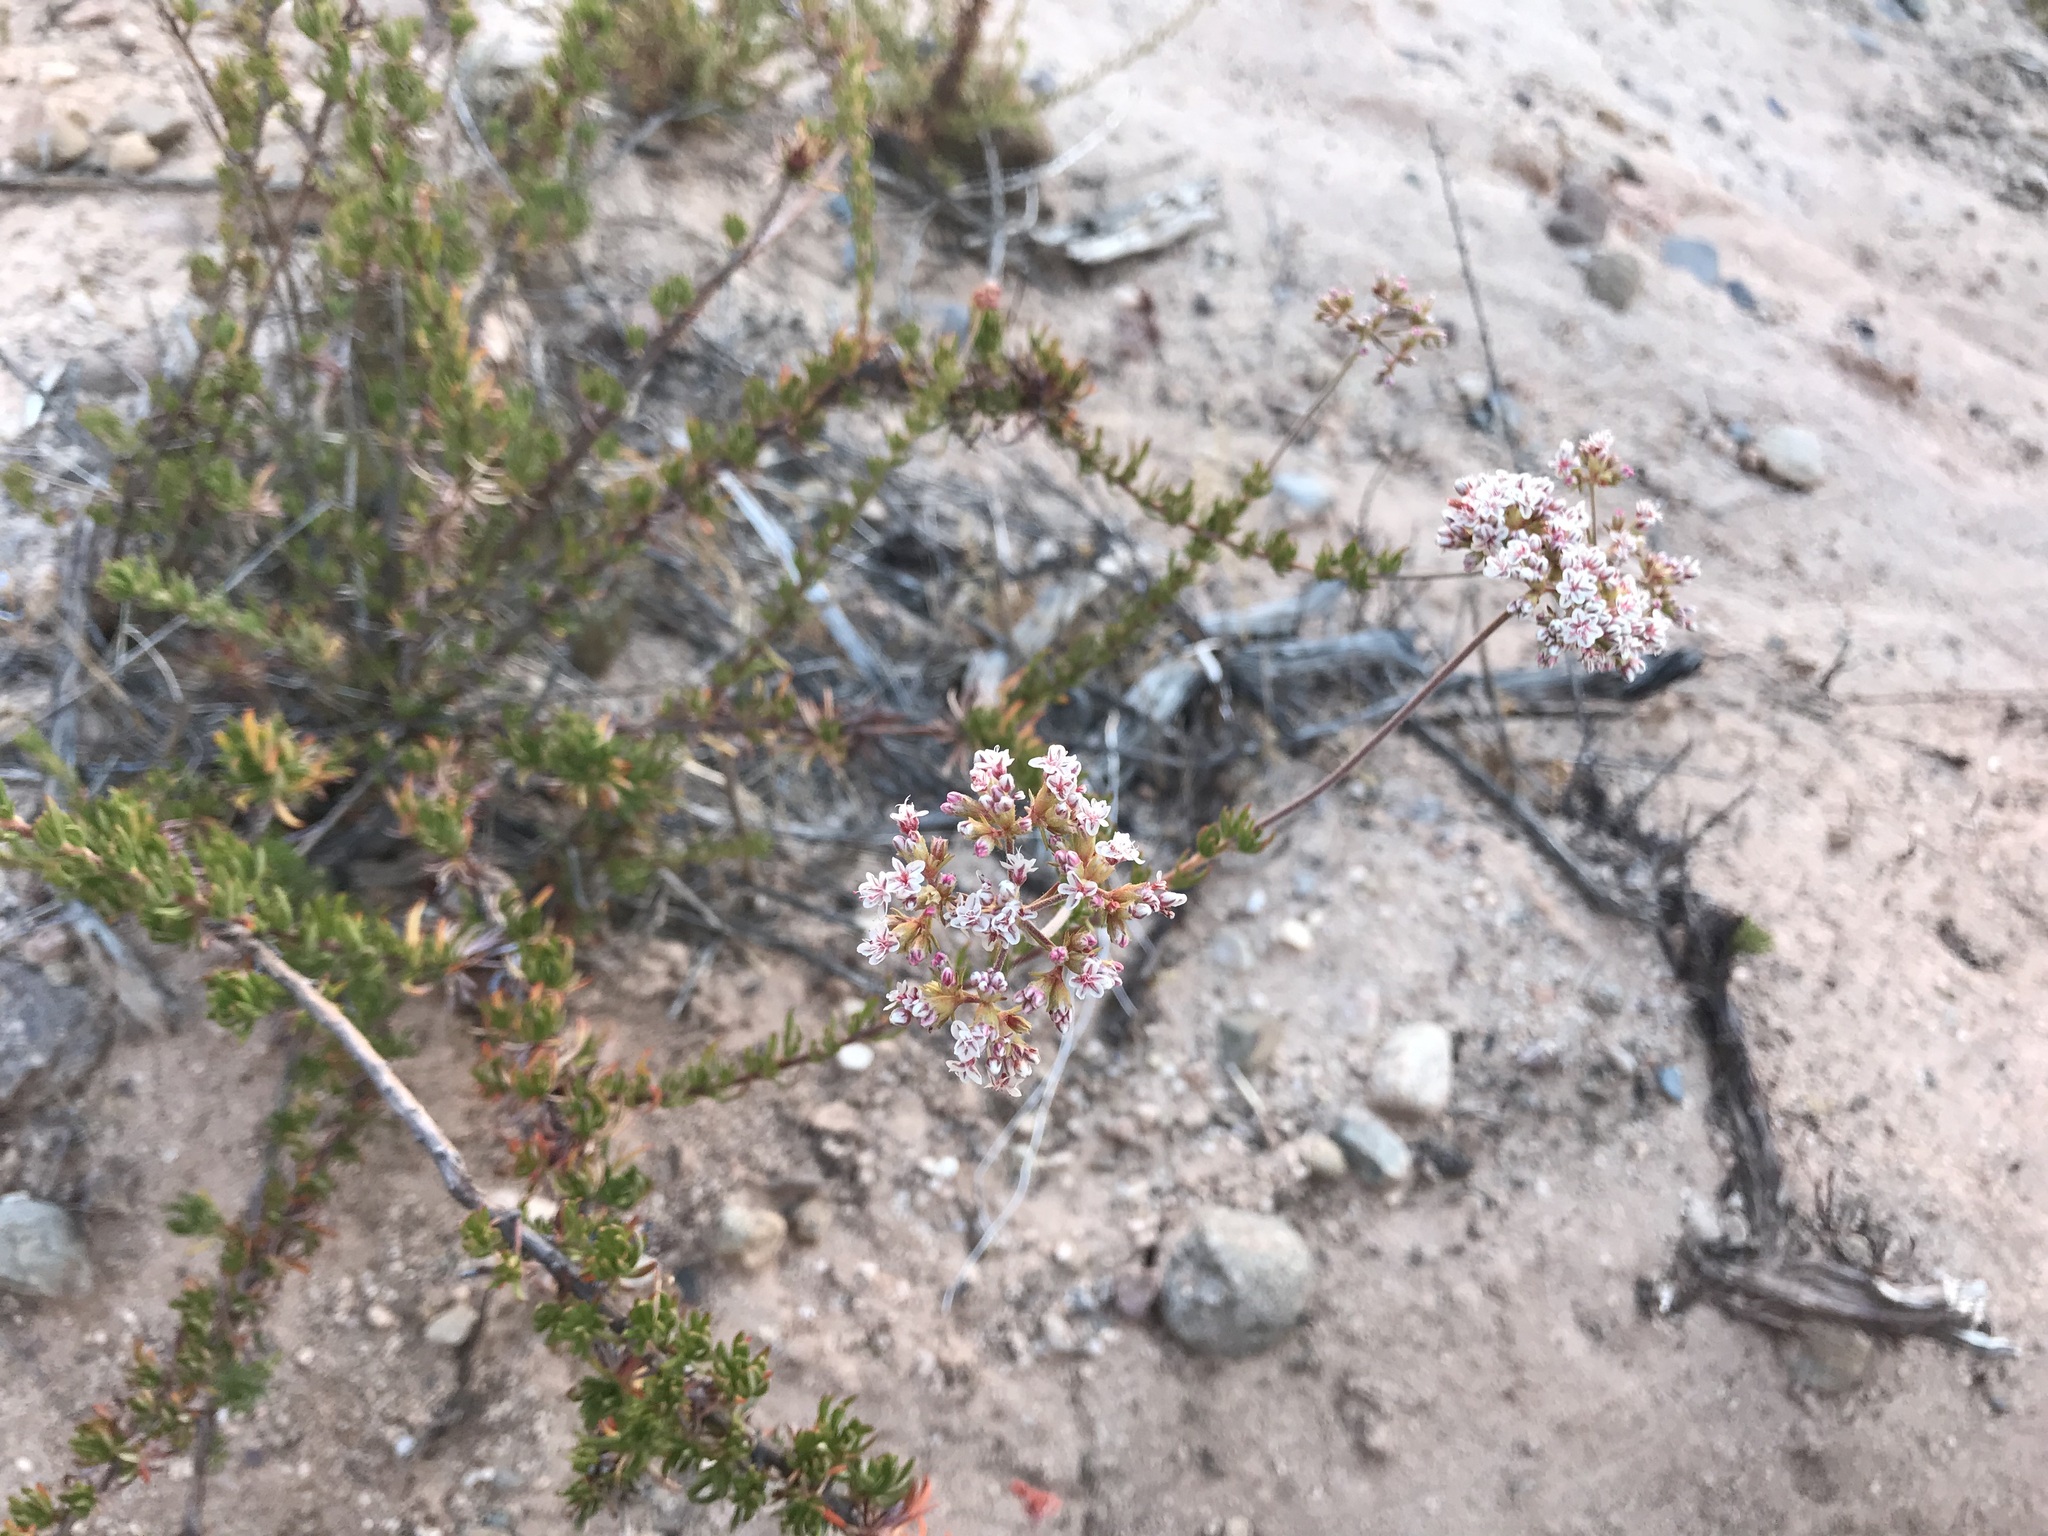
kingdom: Plantae
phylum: Tracheophyta
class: Magnoliopsida
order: Caryophyllales
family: Polygonaceae
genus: Eriogonum
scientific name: Eriogonum fasciculatum
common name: California wild buckwheat
